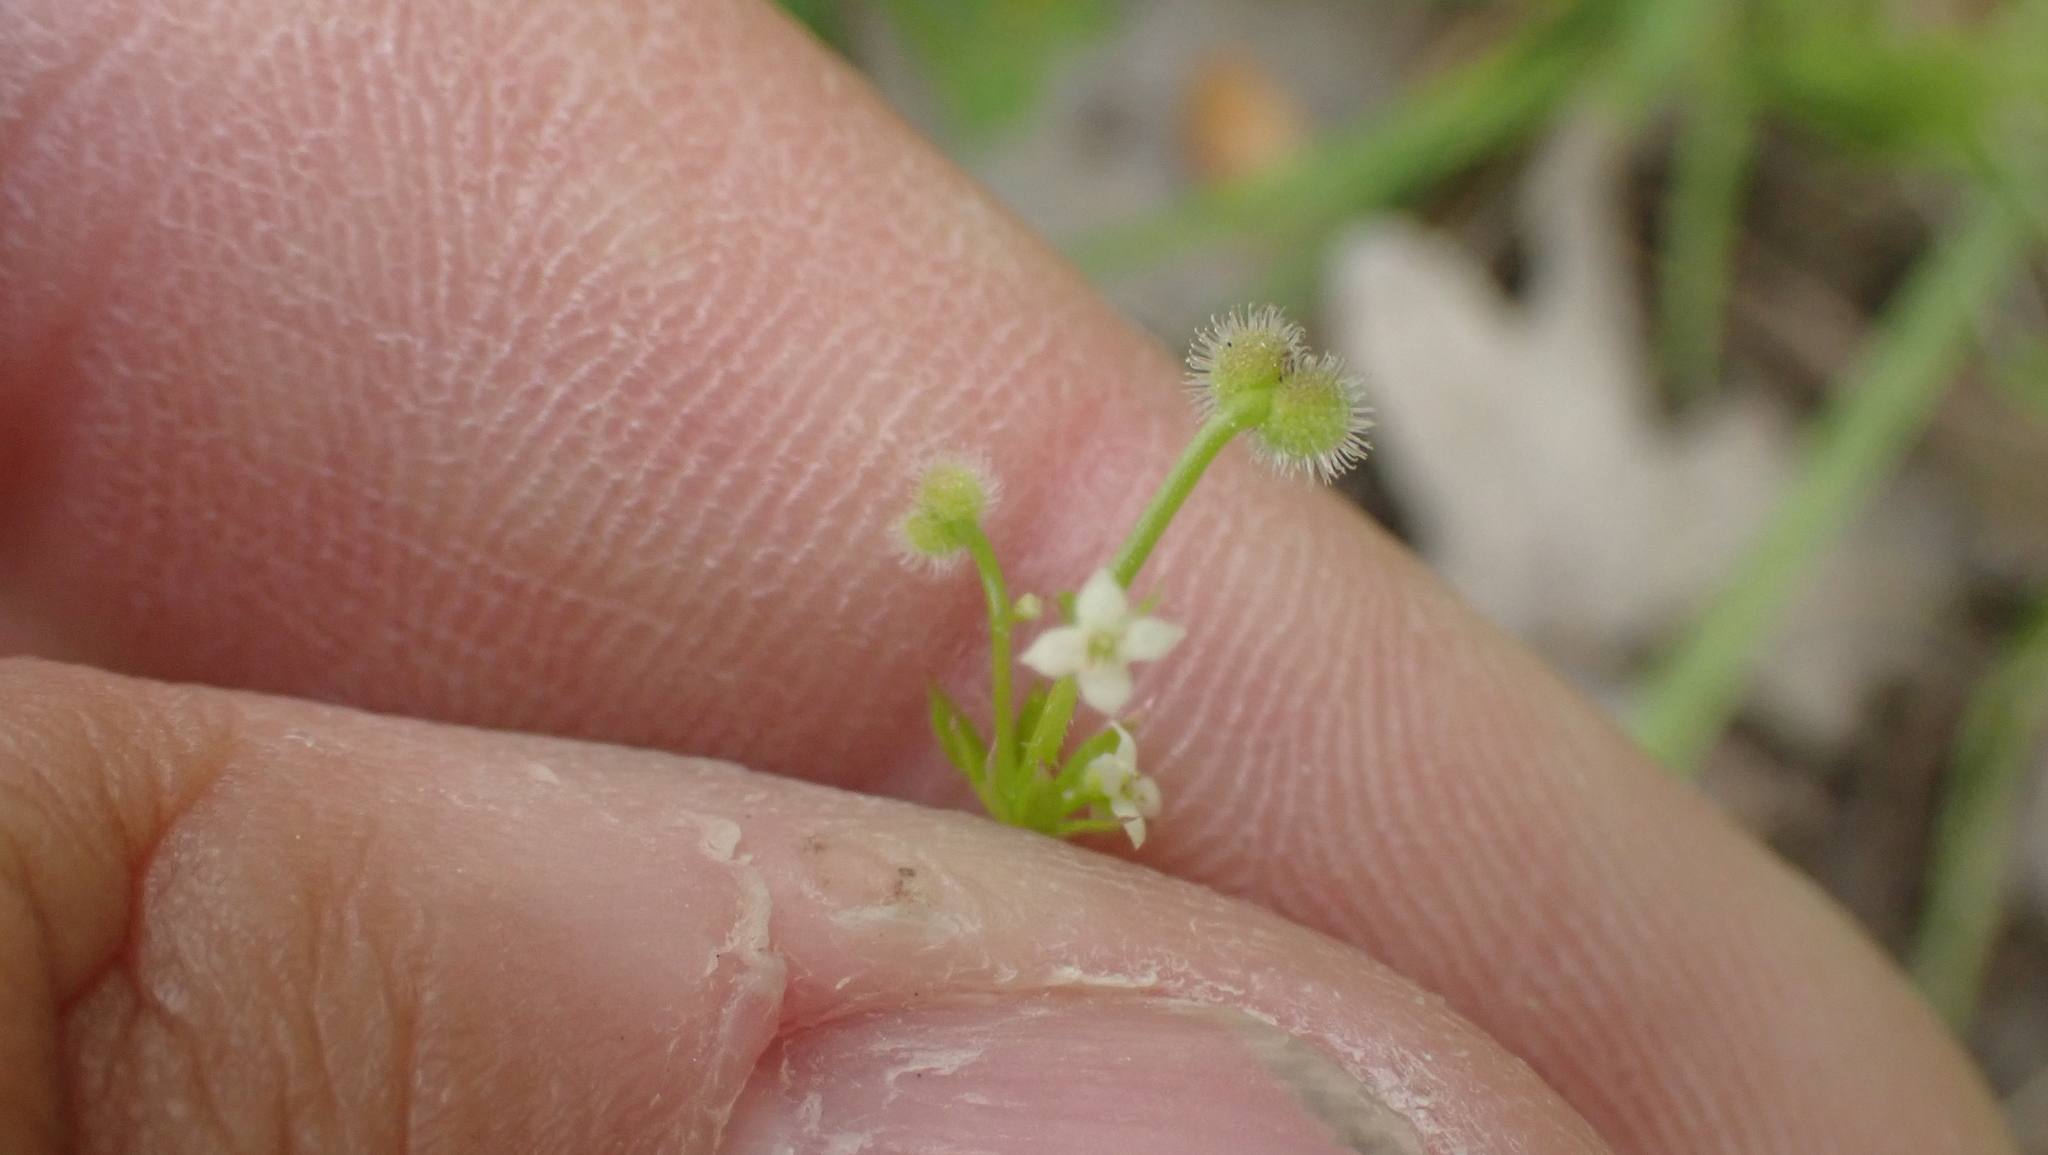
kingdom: Plantae
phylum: Tracheophyta
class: Magnoliopsida
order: Gentianales
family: Rubiaceae
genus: Galium
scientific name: Galium aparine
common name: Cleavers
